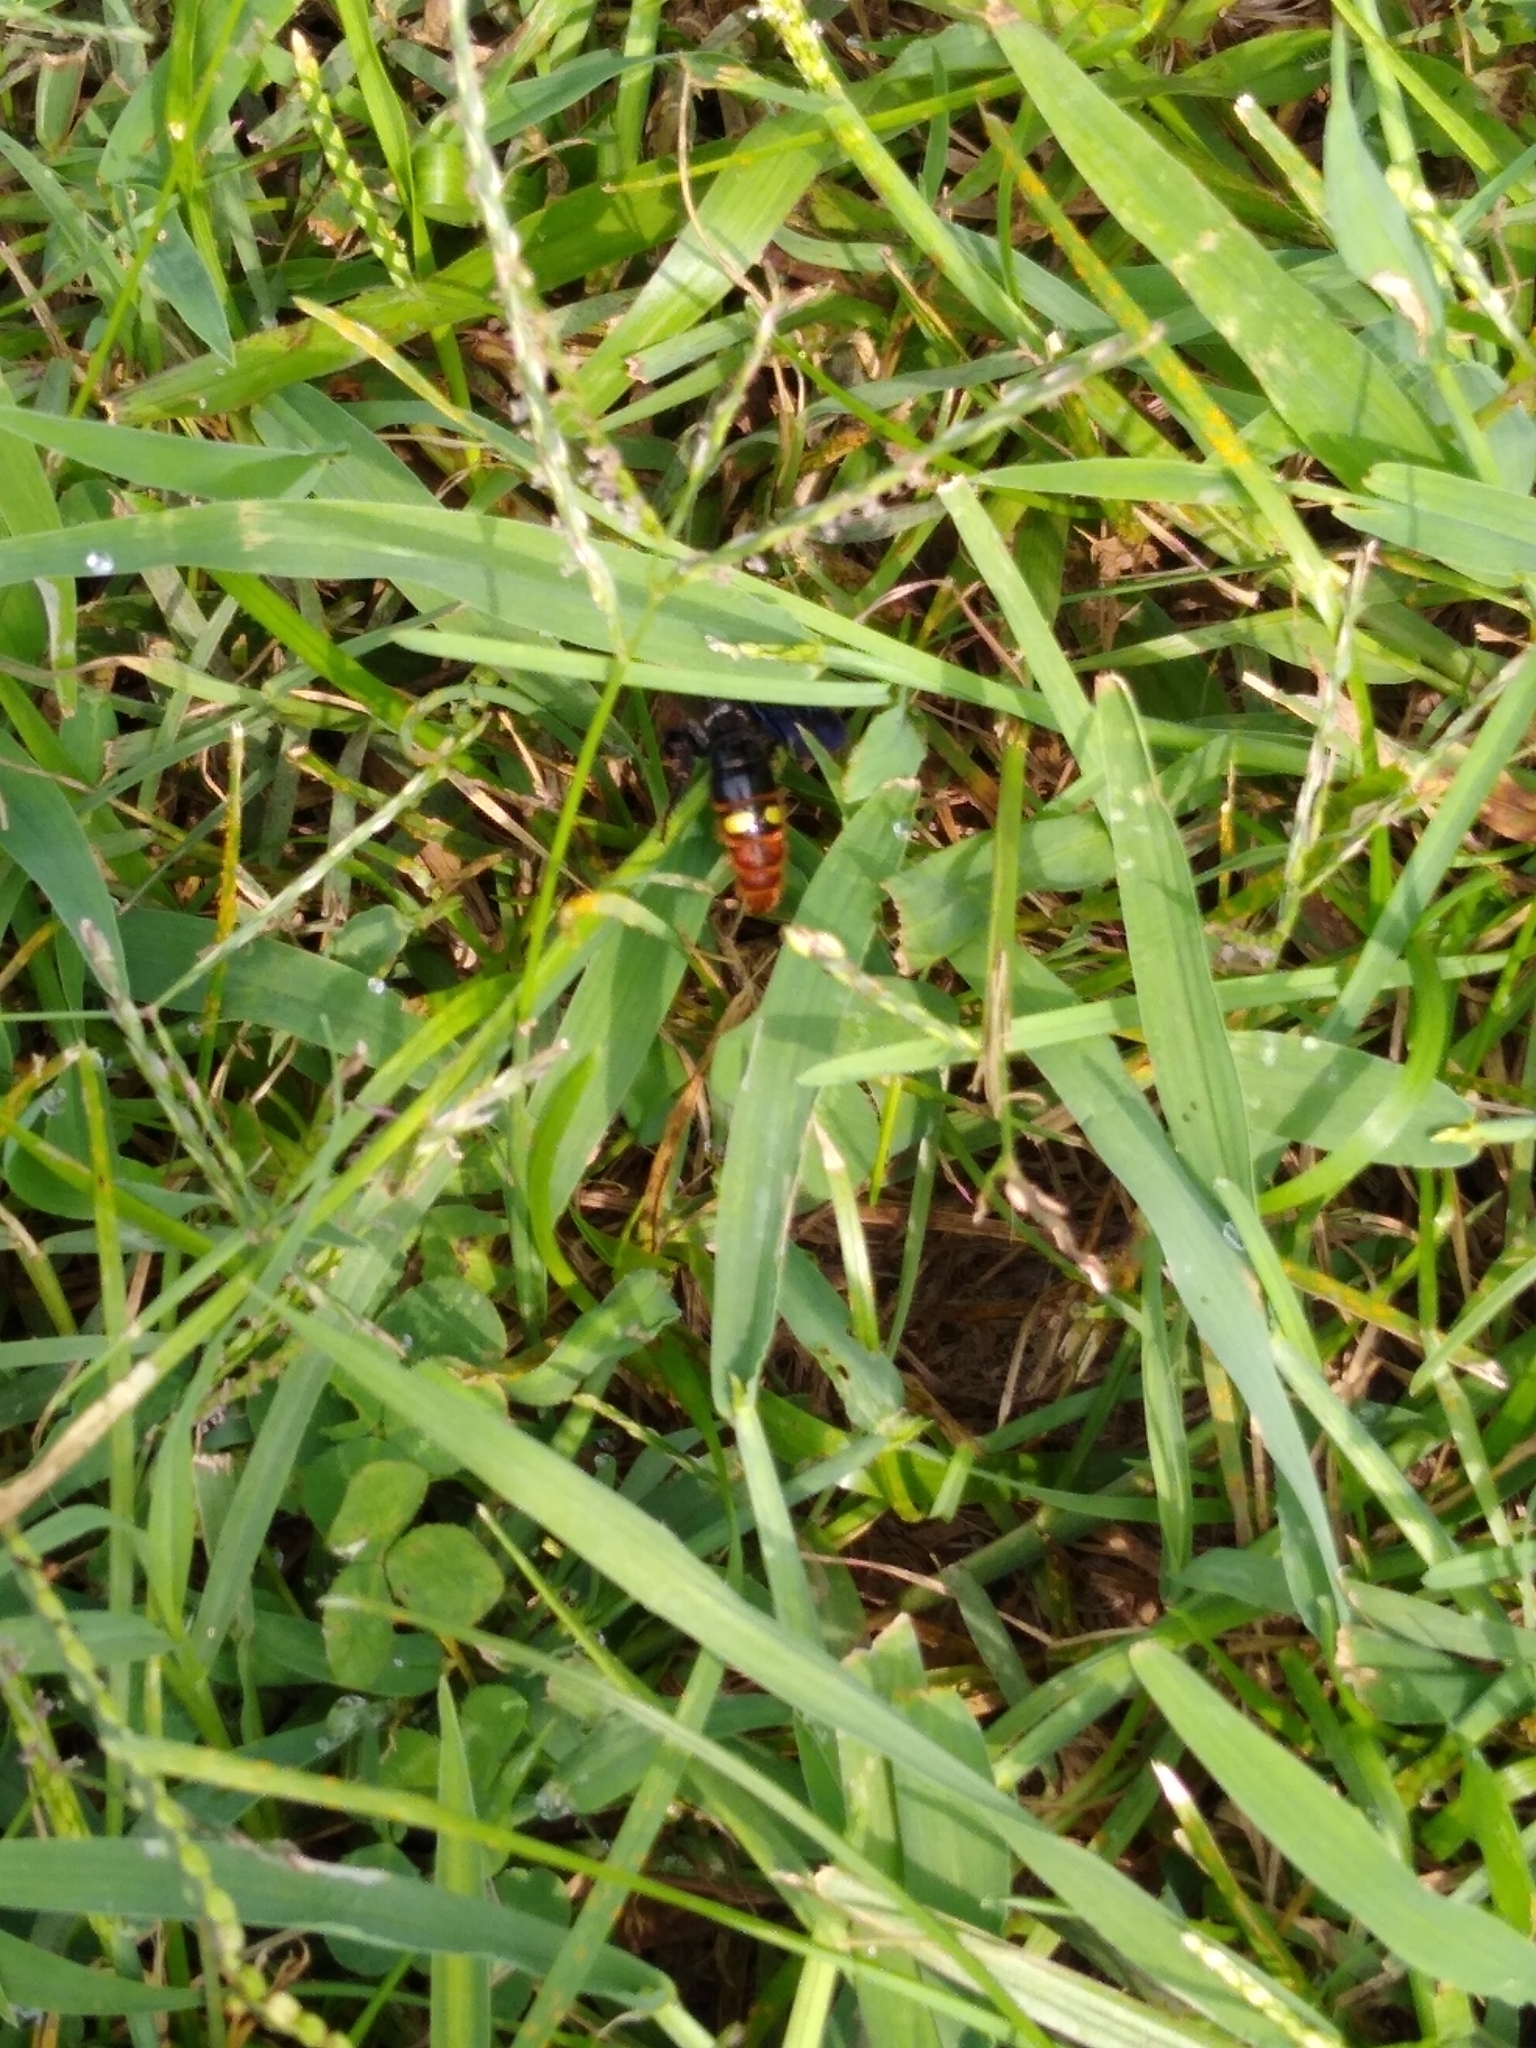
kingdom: Animalia
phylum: Arthropoda
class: Insecta
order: Hymenoptera
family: Scoliidae
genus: Scolia
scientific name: Scolia dubia
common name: Blue-winged scoliid wasp
